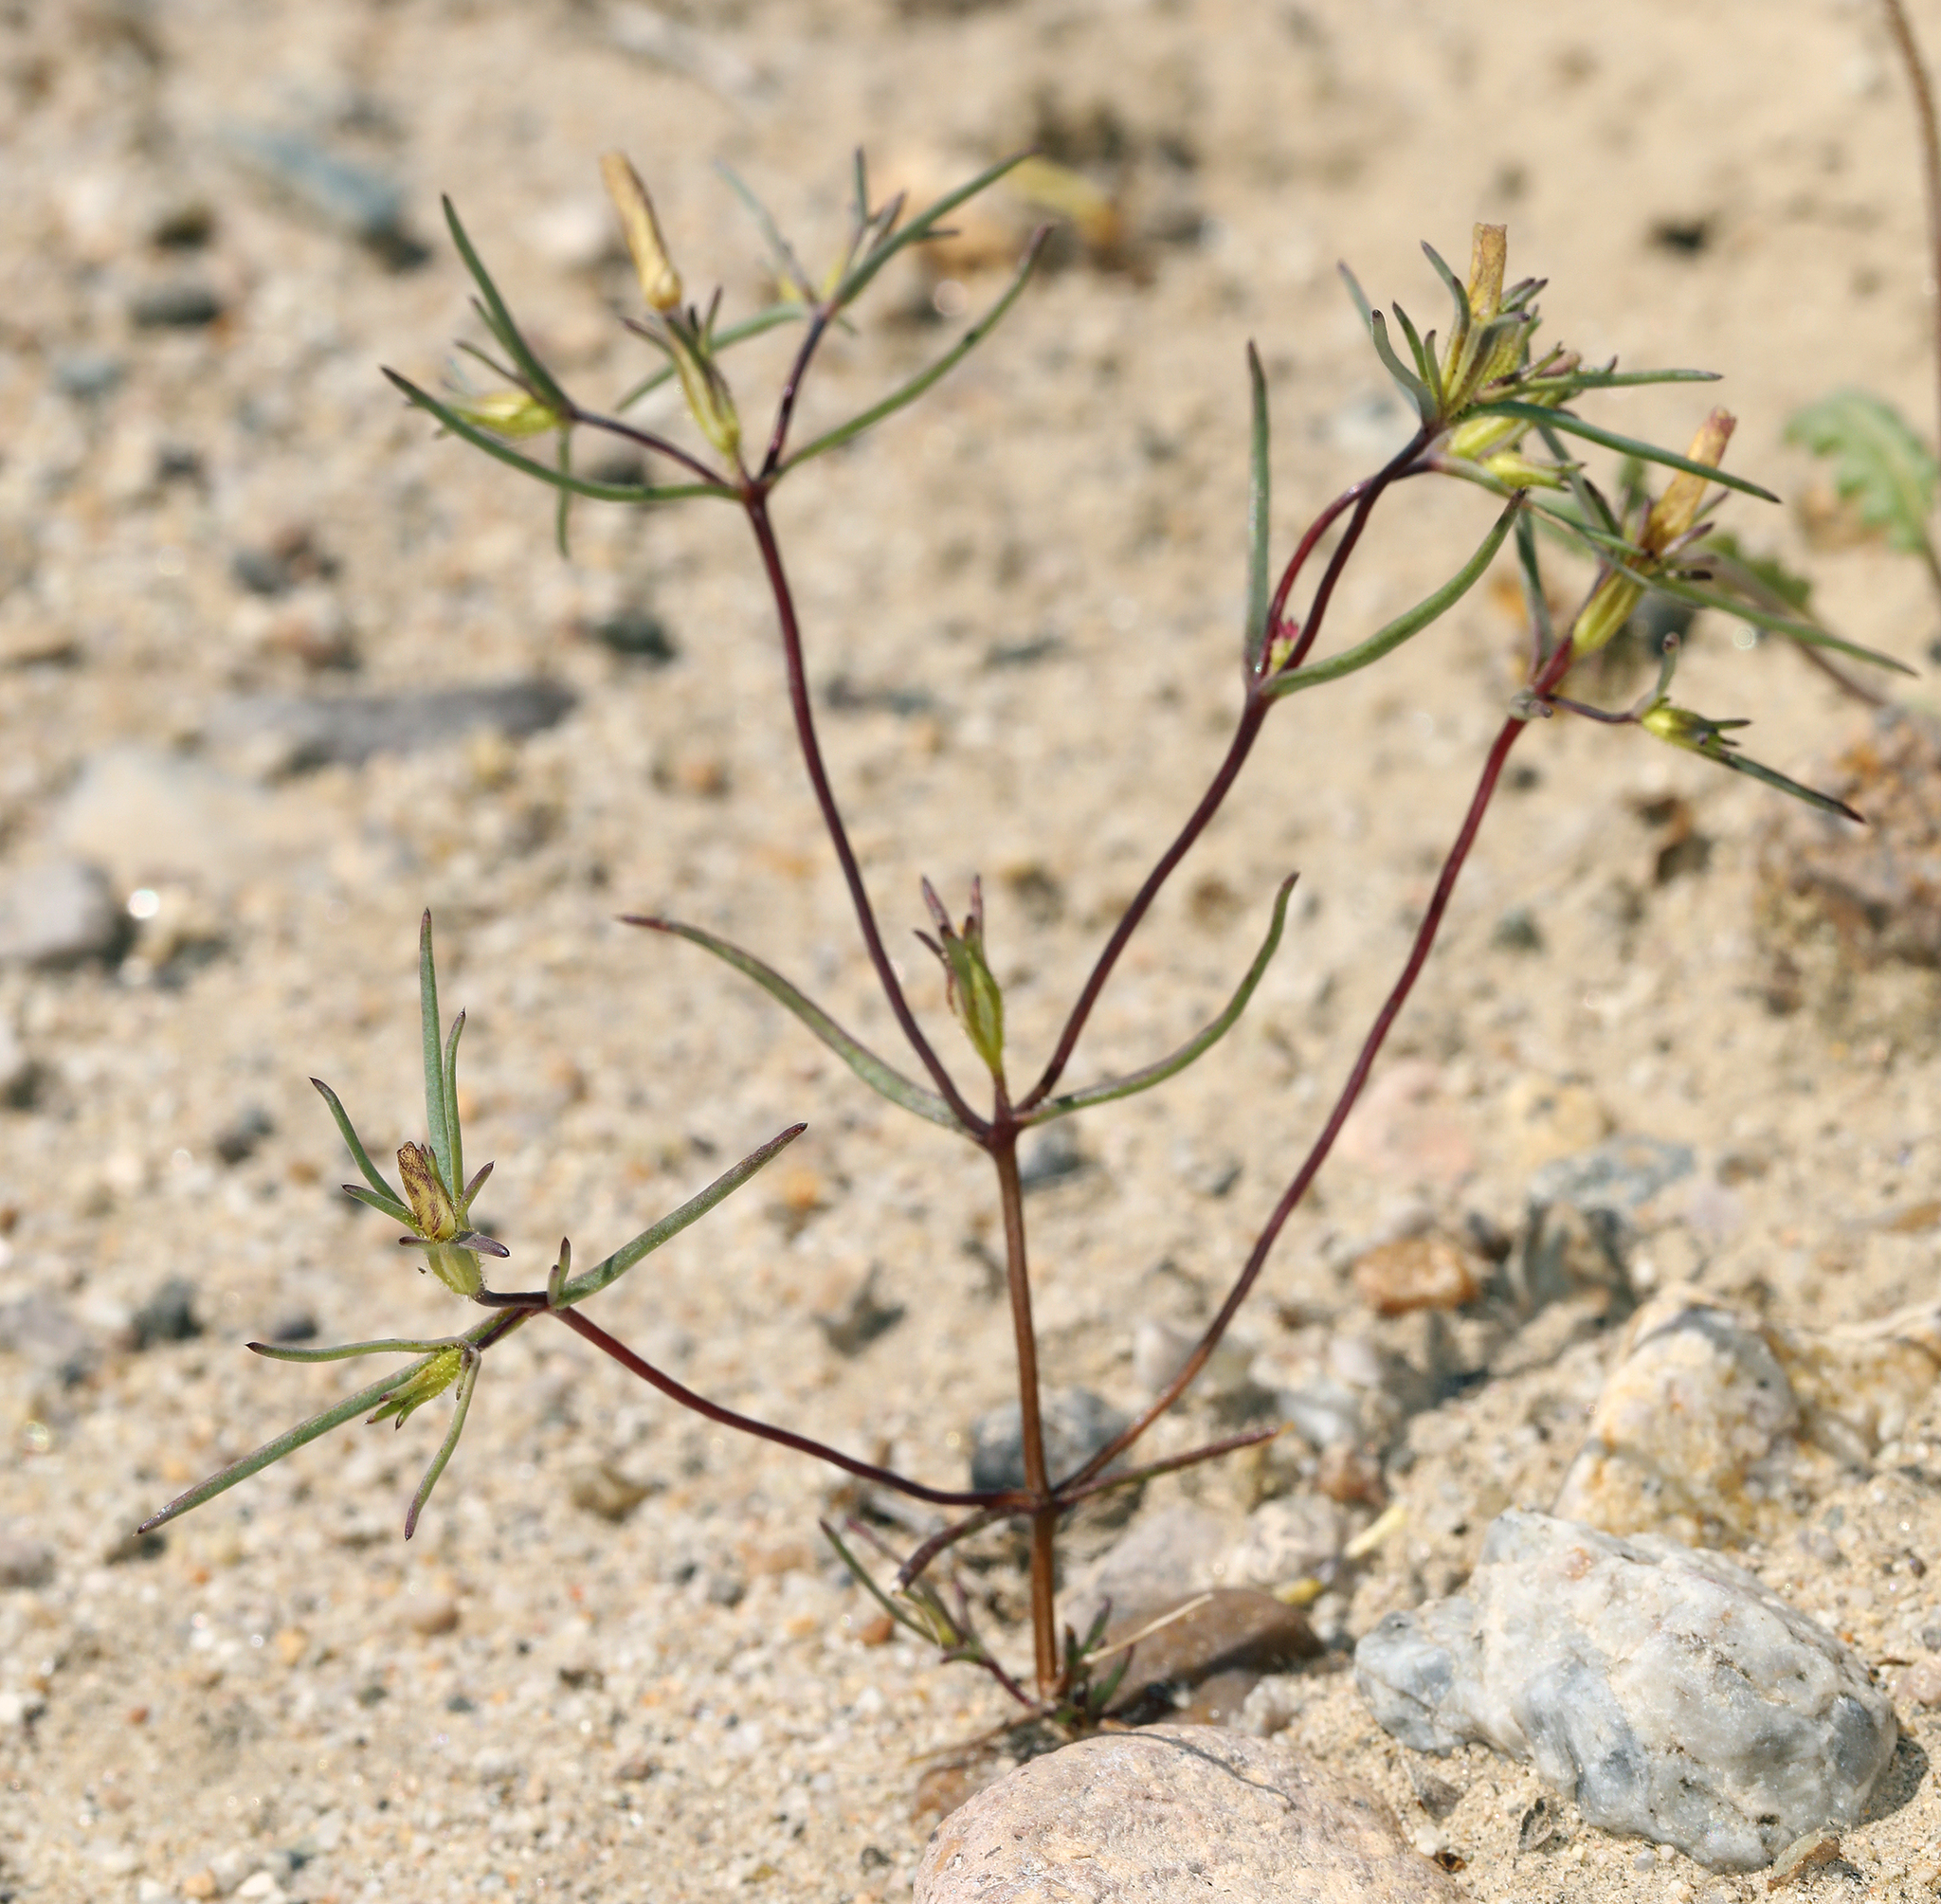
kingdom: Plantae
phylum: Tracheophyta
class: Magnoliopsida
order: Ericales
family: Polemoniaceae
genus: Linanthus
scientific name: Linanthus jonesii
